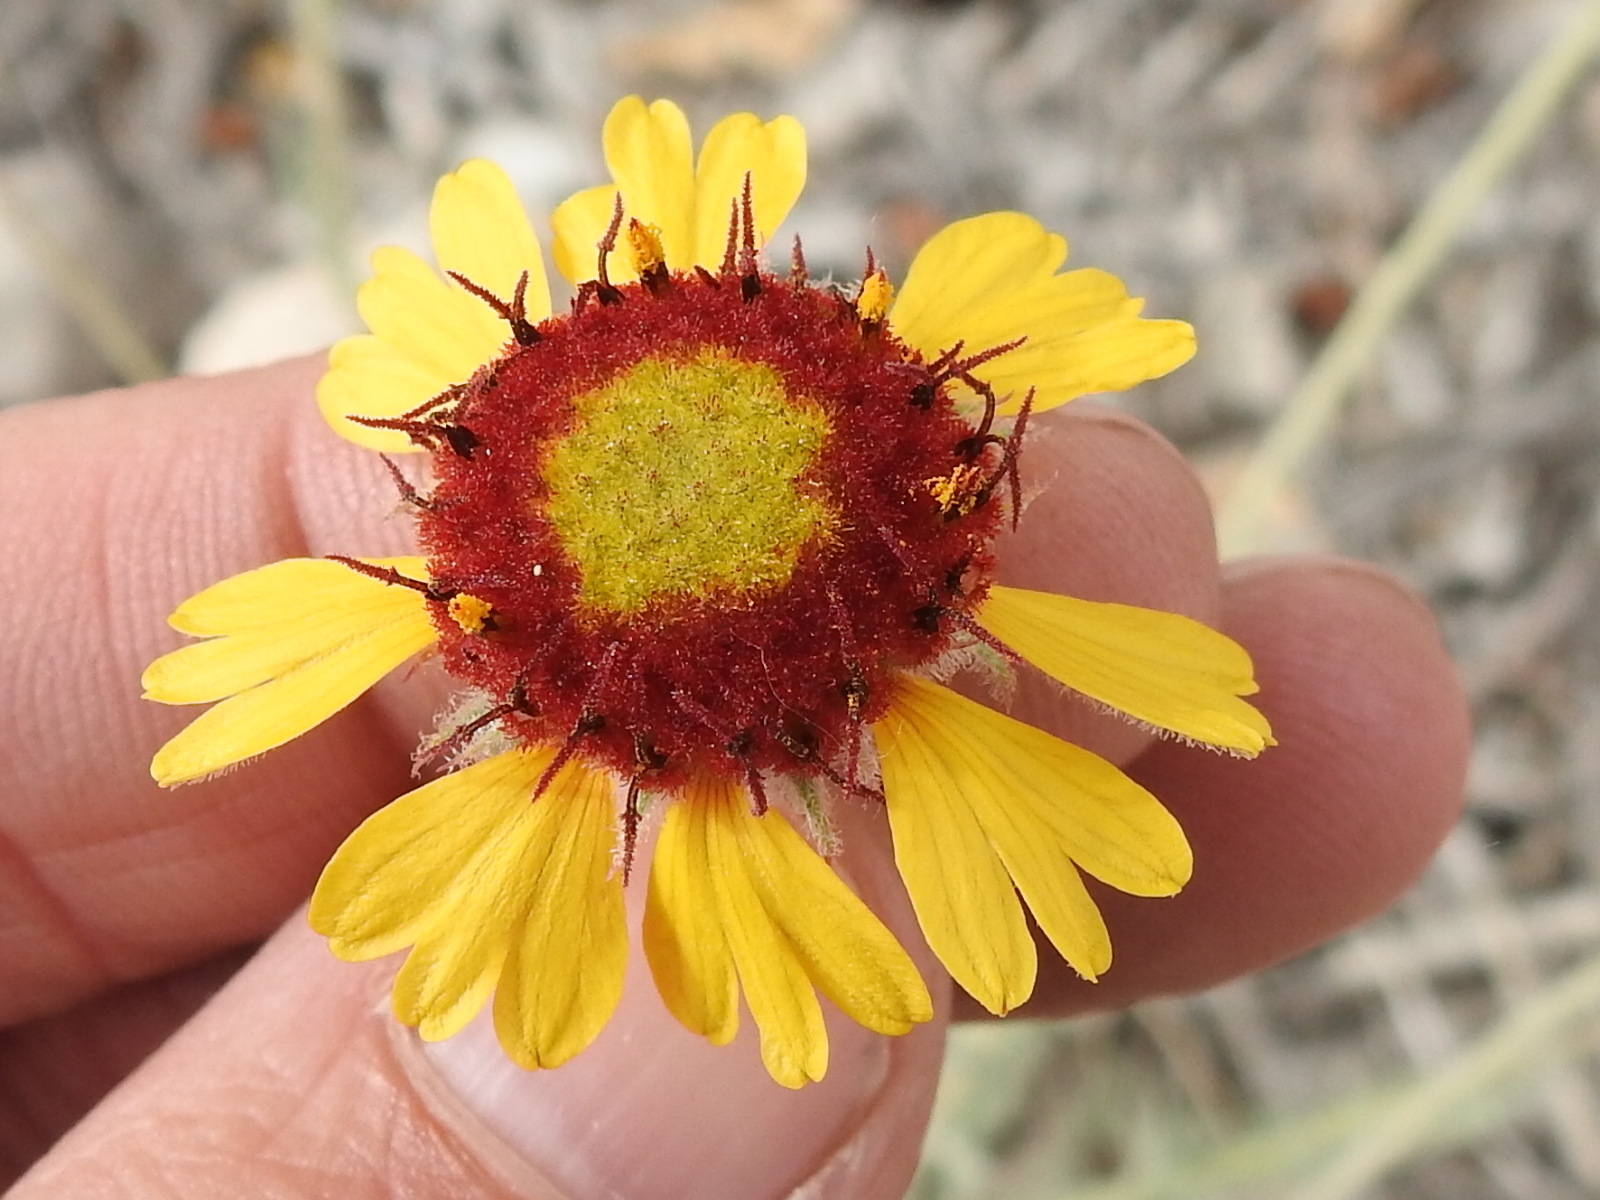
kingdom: Plantae
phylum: Tracheophyta
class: Magnoliopsida
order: Asterales
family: Asteraceae
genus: Gaillardia
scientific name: Gaillardia pinnatifida
